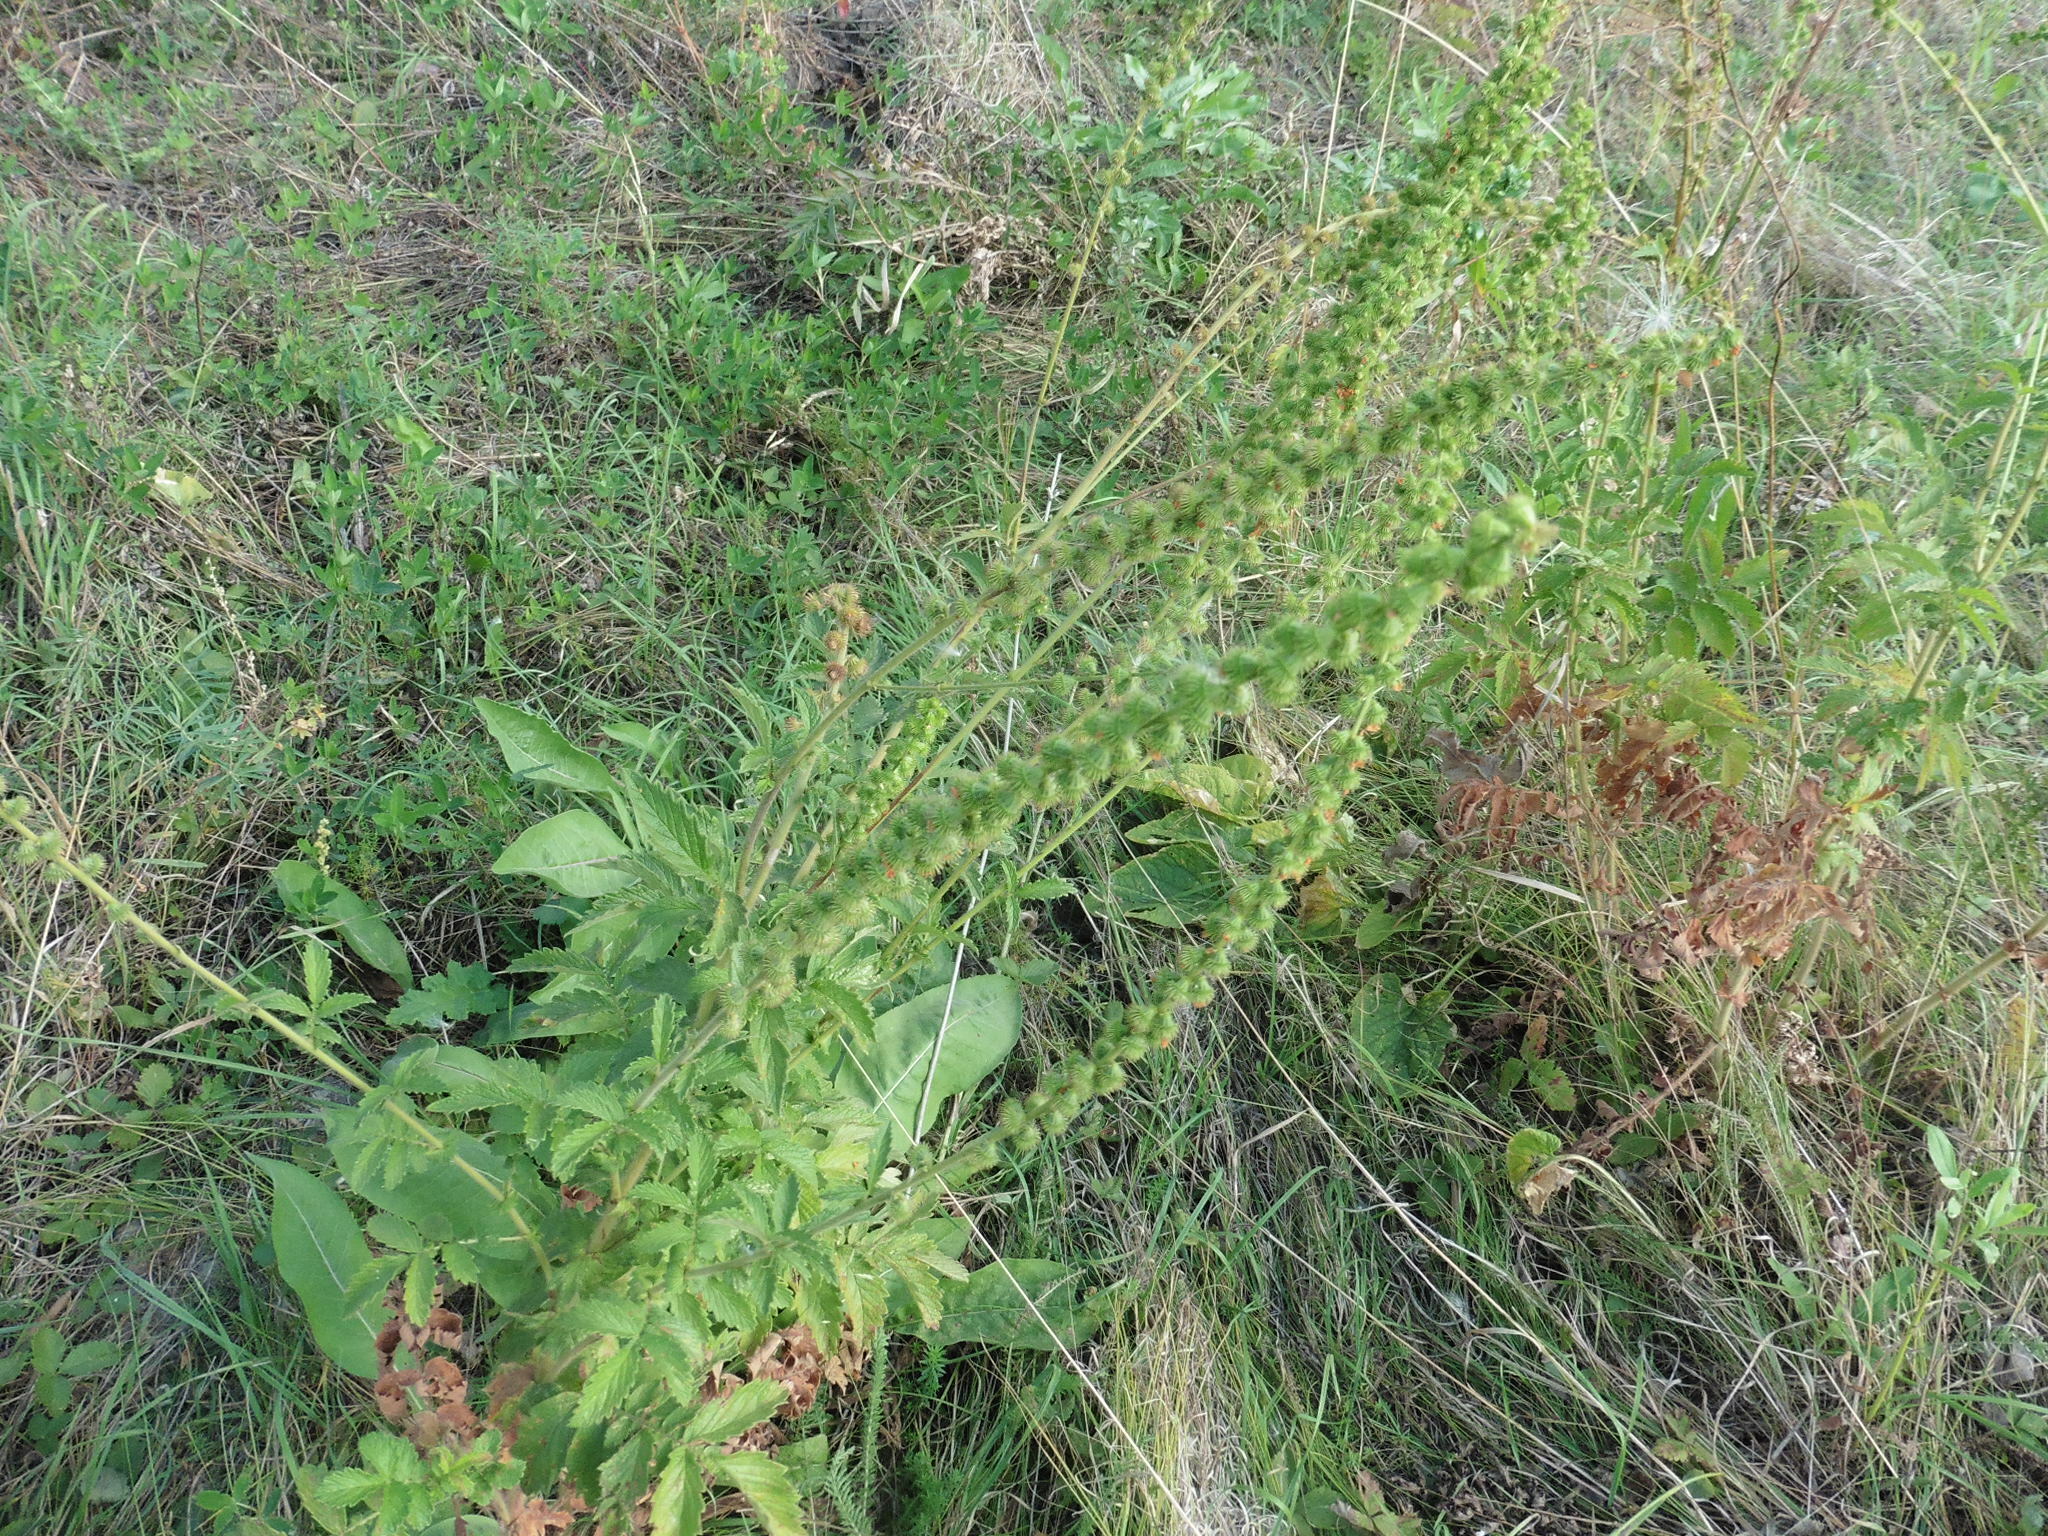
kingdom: Plantae
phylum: Tracheophyta
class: Magnoliopsida
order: Rosales
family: Rosaceae
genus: Agrimonia
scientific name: Agrimonia eupatoria
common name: Agrimony
